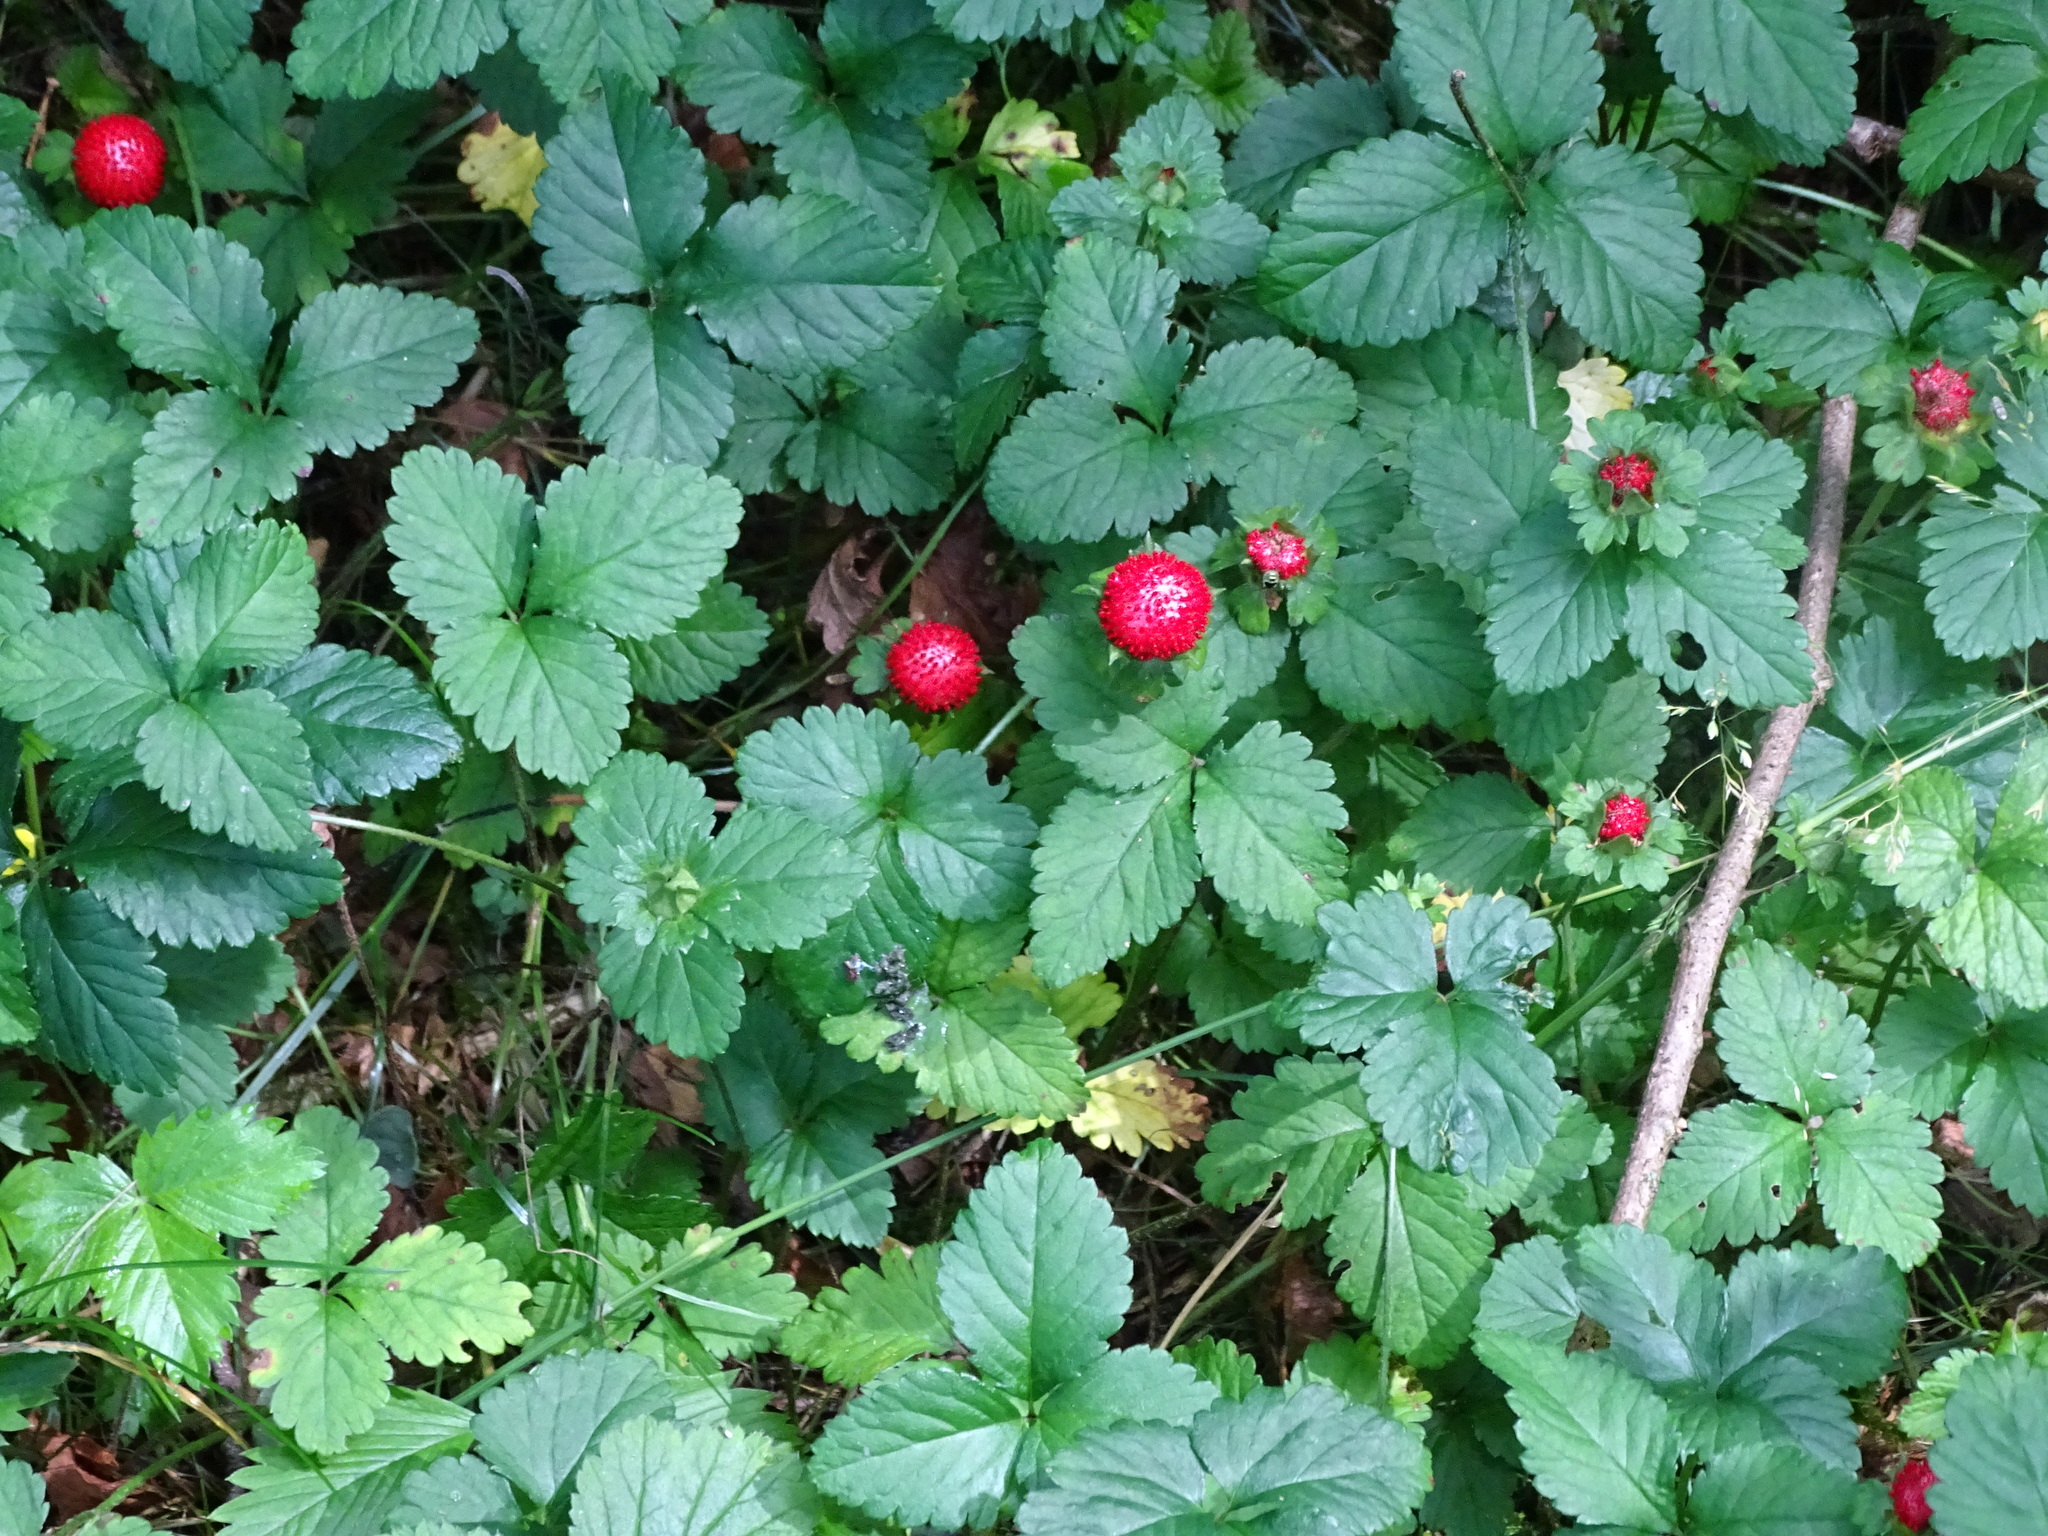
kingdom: Plantae
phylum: Tracheophyta
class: Magnoliopsida
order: Rosales
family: Rosaceae
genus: Potentilla
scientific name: Potentilla indica
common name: Yellow-flowered strawberry
